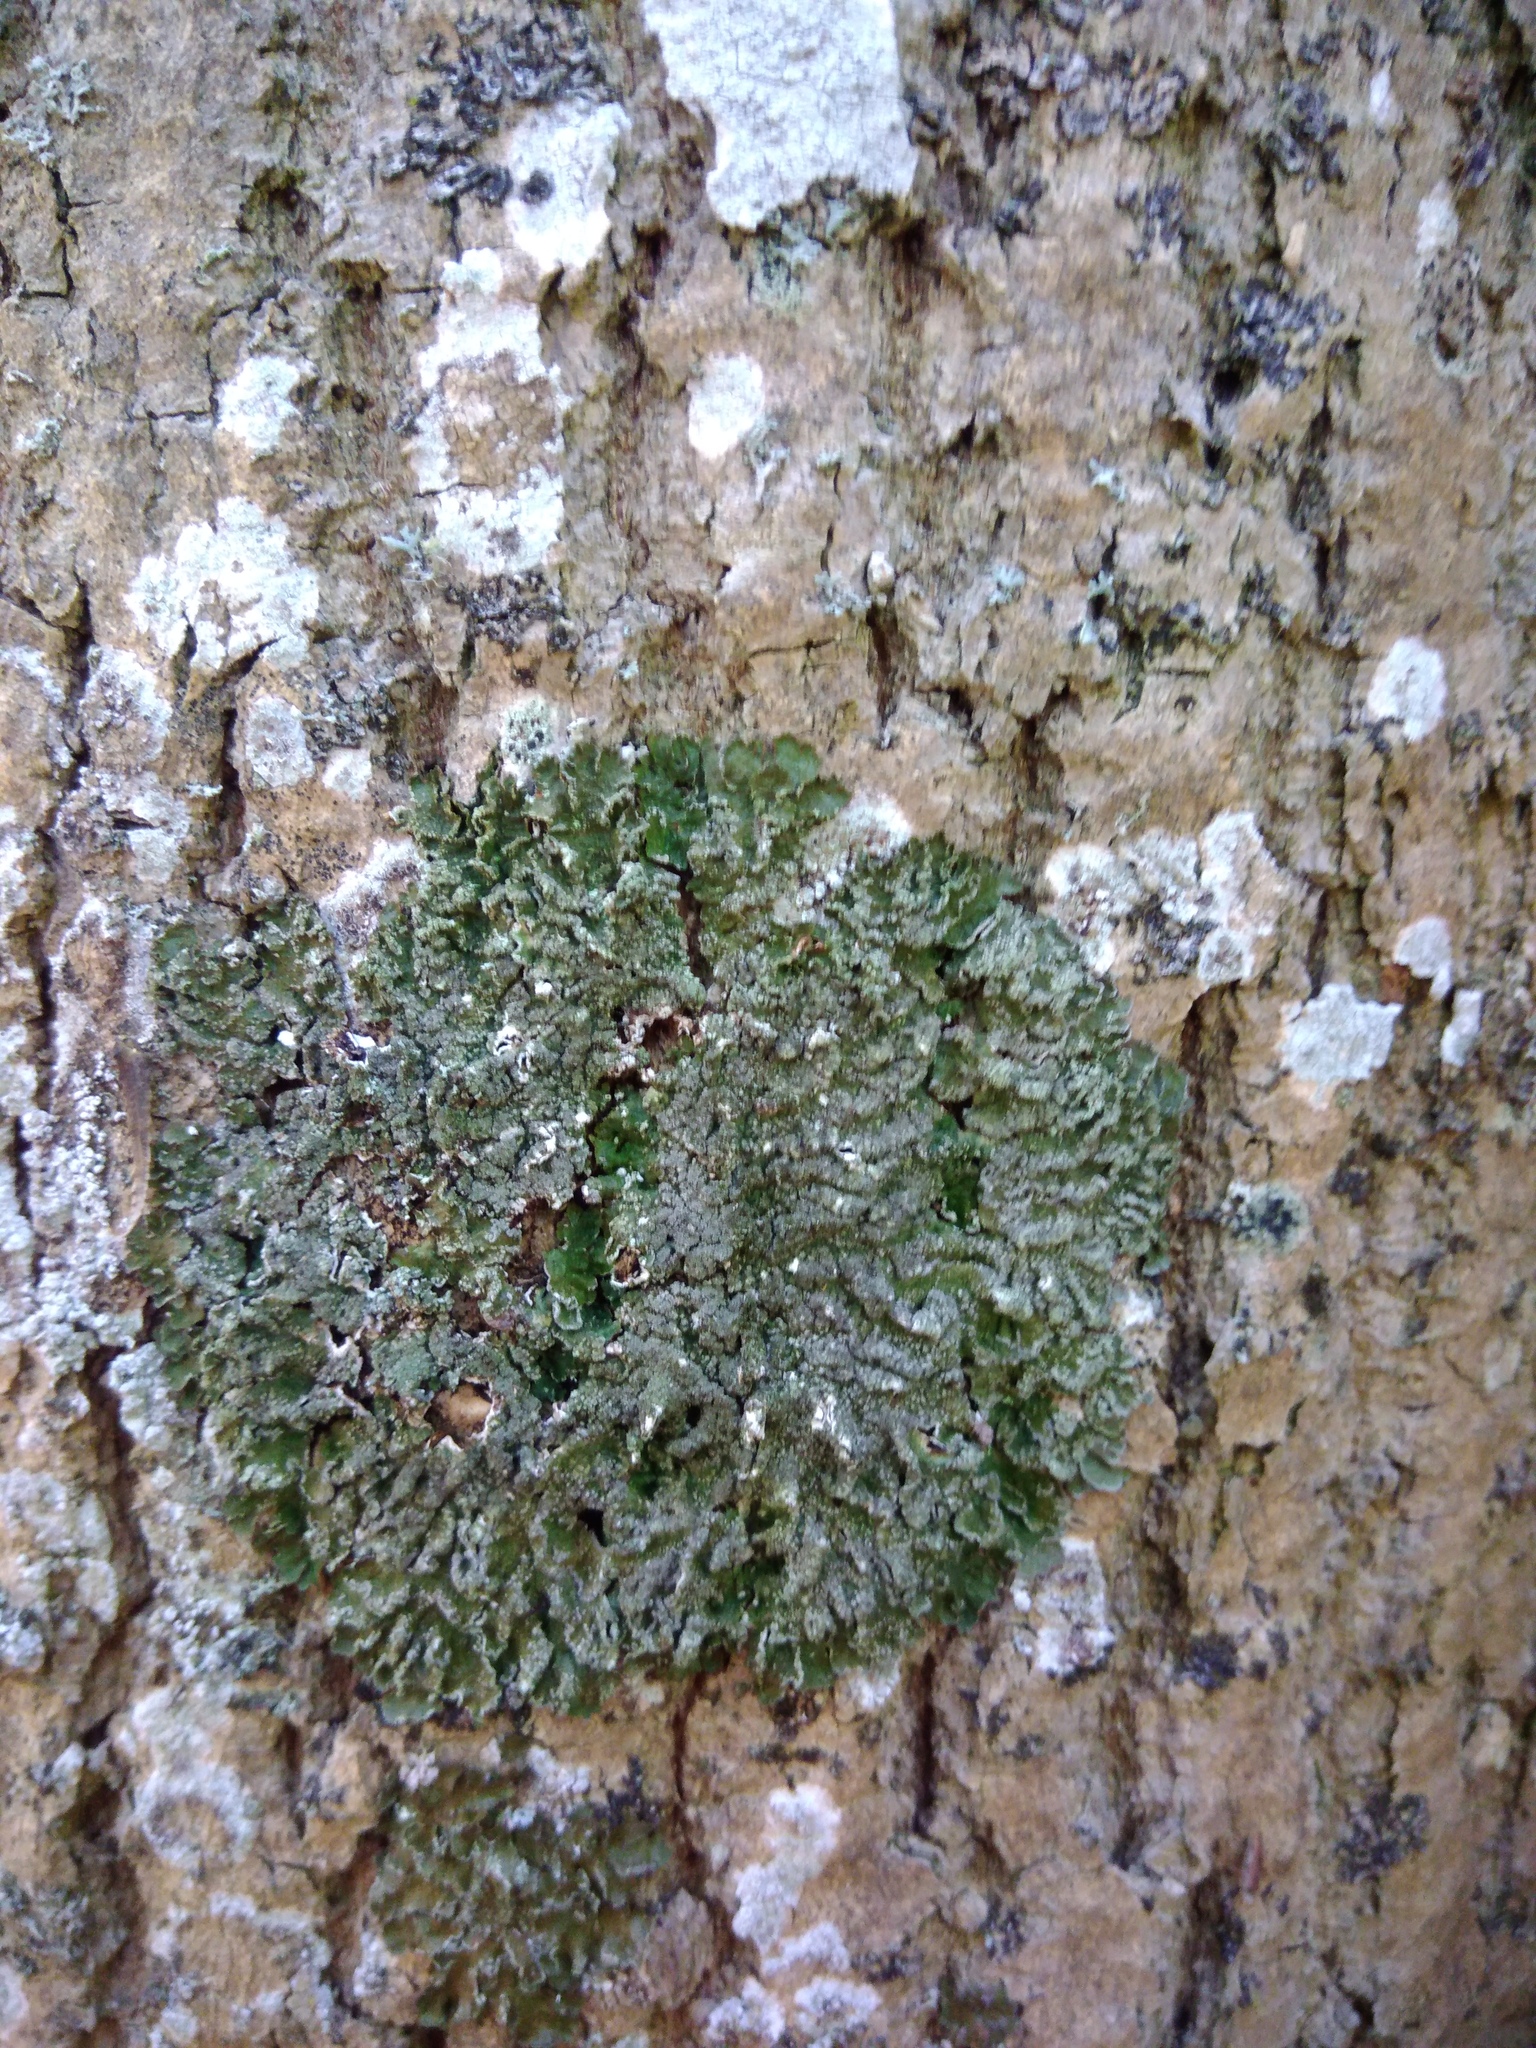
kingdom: Fungi
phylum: Ascomycota
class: Lecanoromycetes
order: Lecanorales
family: Parmeliaceae
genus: Melanelixia
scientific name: Melanelixia subargentifera
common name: Whiskered camouflage lichen
